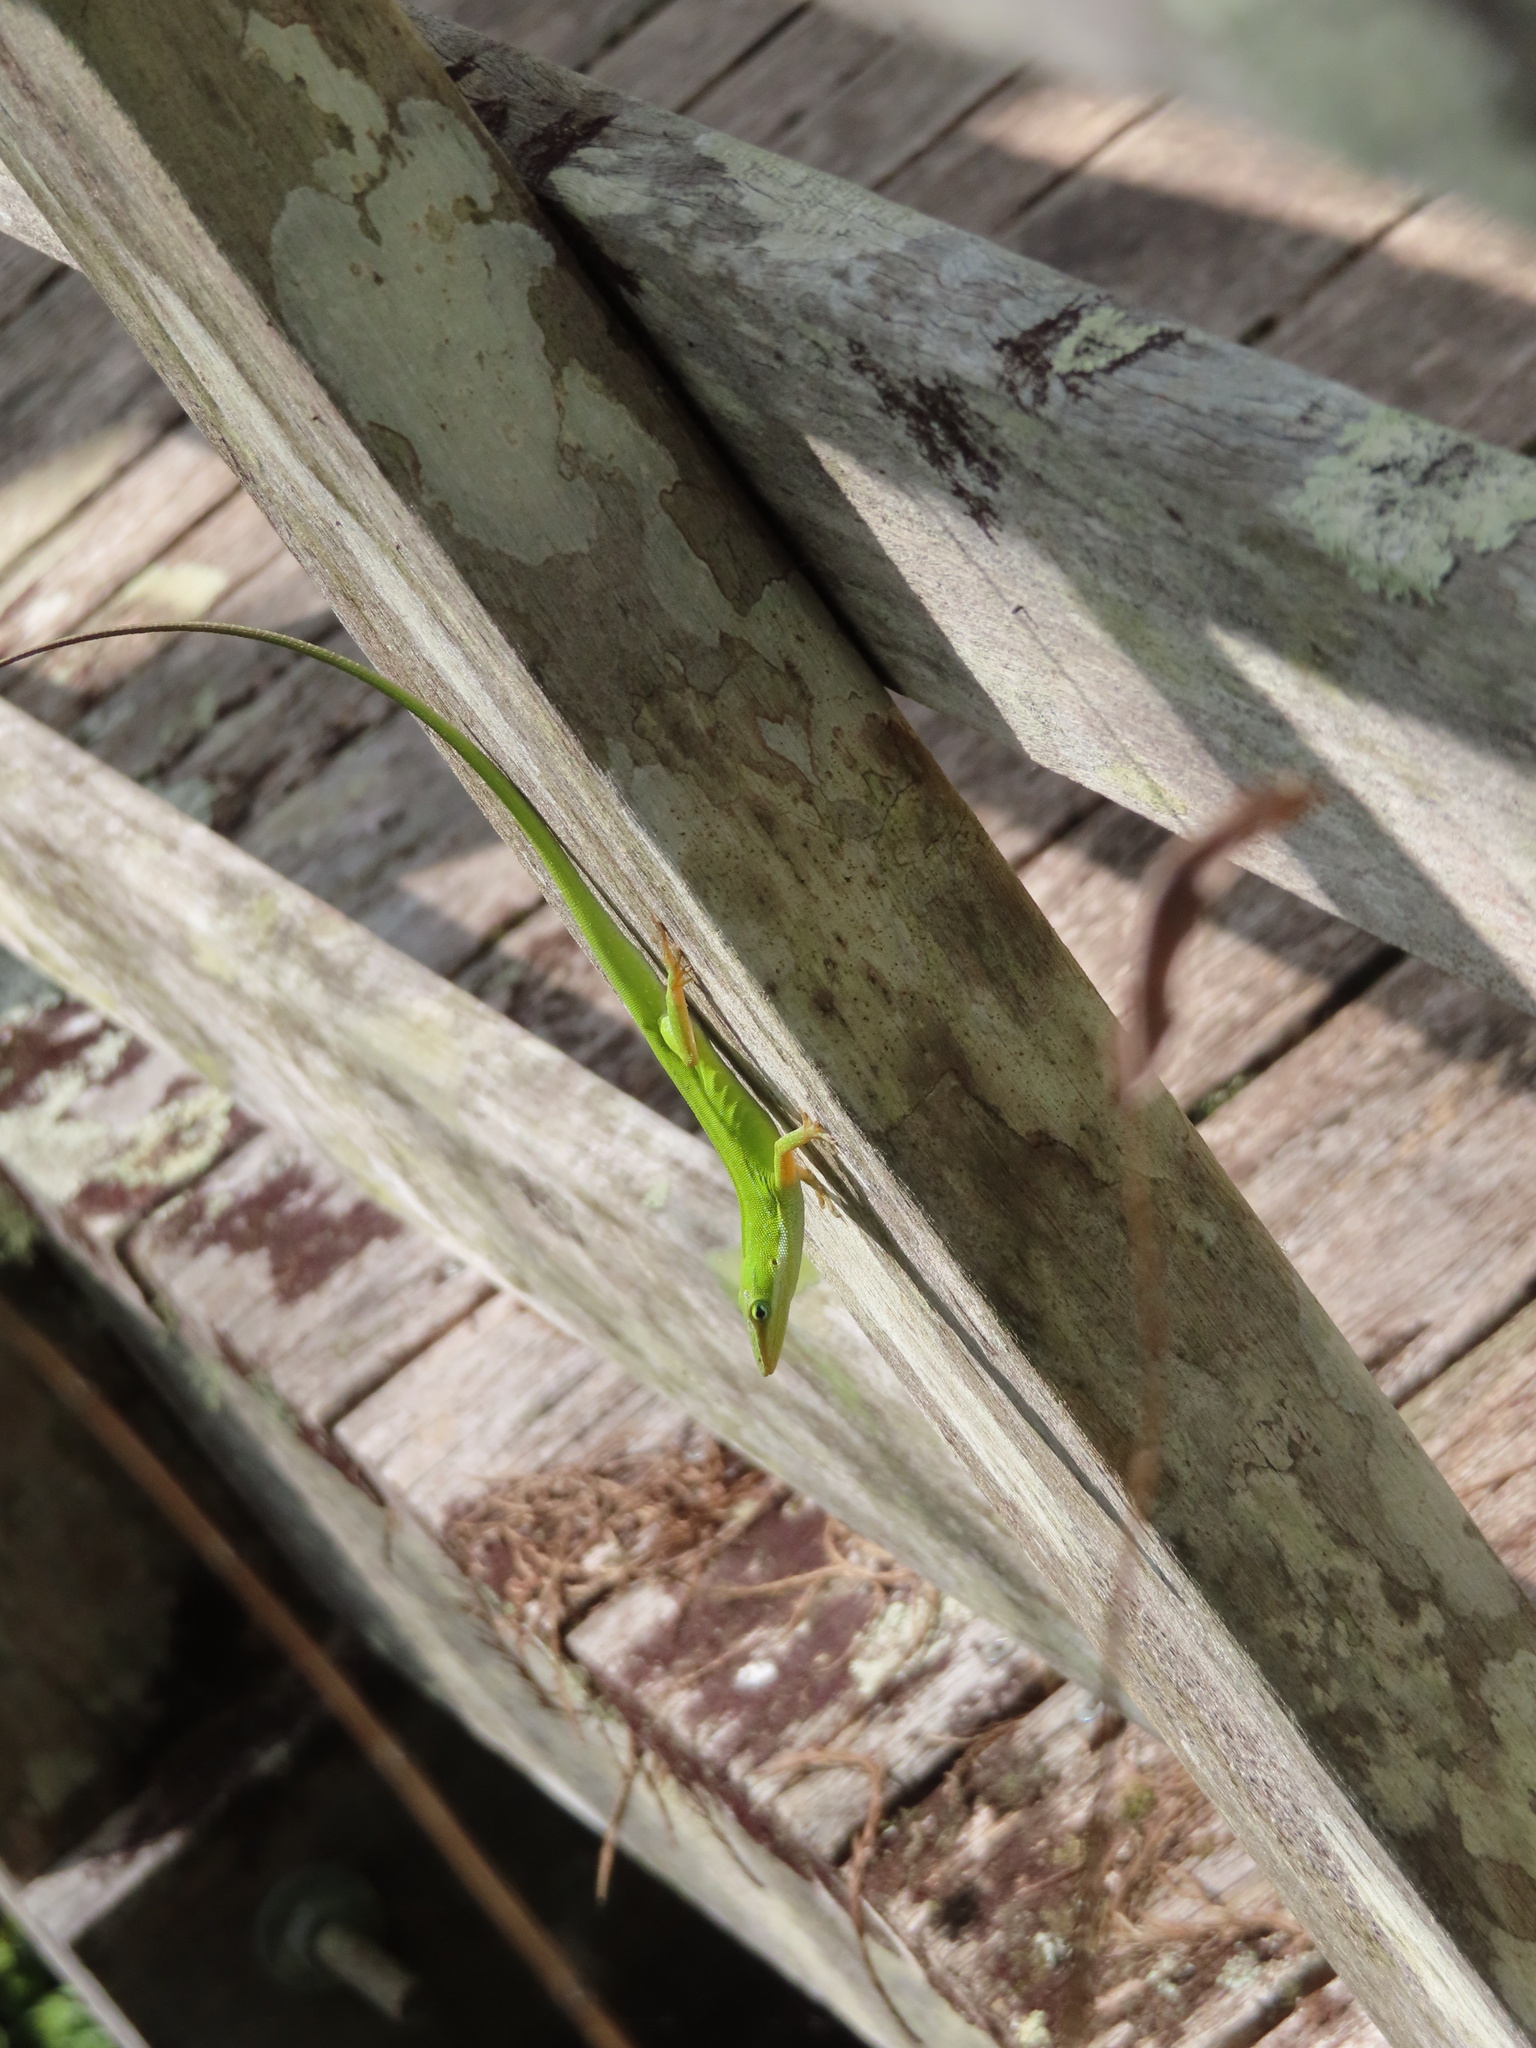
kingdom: Animalia
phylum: Chordata
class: Squamata
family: Dactyloidae
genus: Anolis
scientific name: Anolis carolinensis
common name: Green anole
